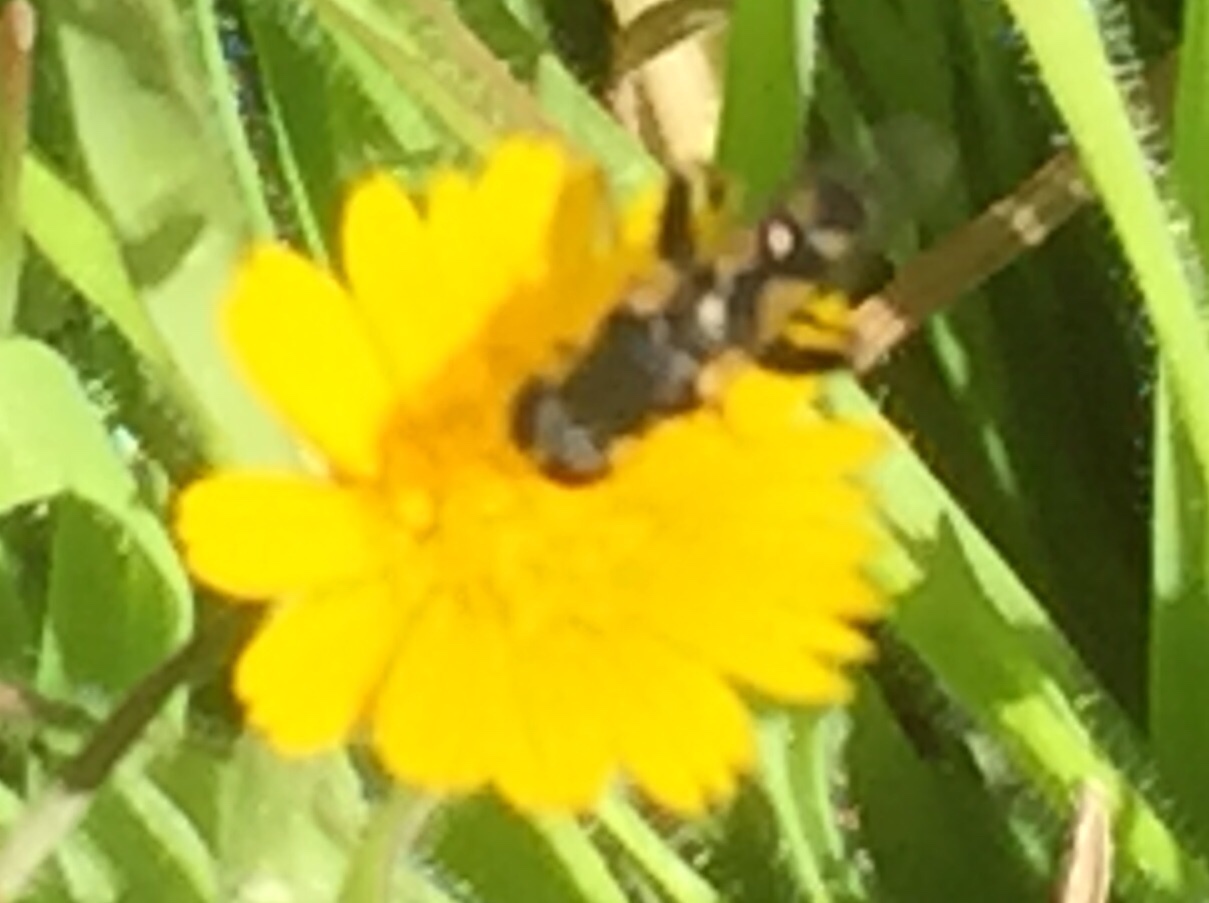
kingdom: Animalia
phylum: Arthropoda
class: Insecta
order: Diptera
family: Syrphidae
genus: Syritta
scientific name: Syritta pipiens
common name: Hover fly
